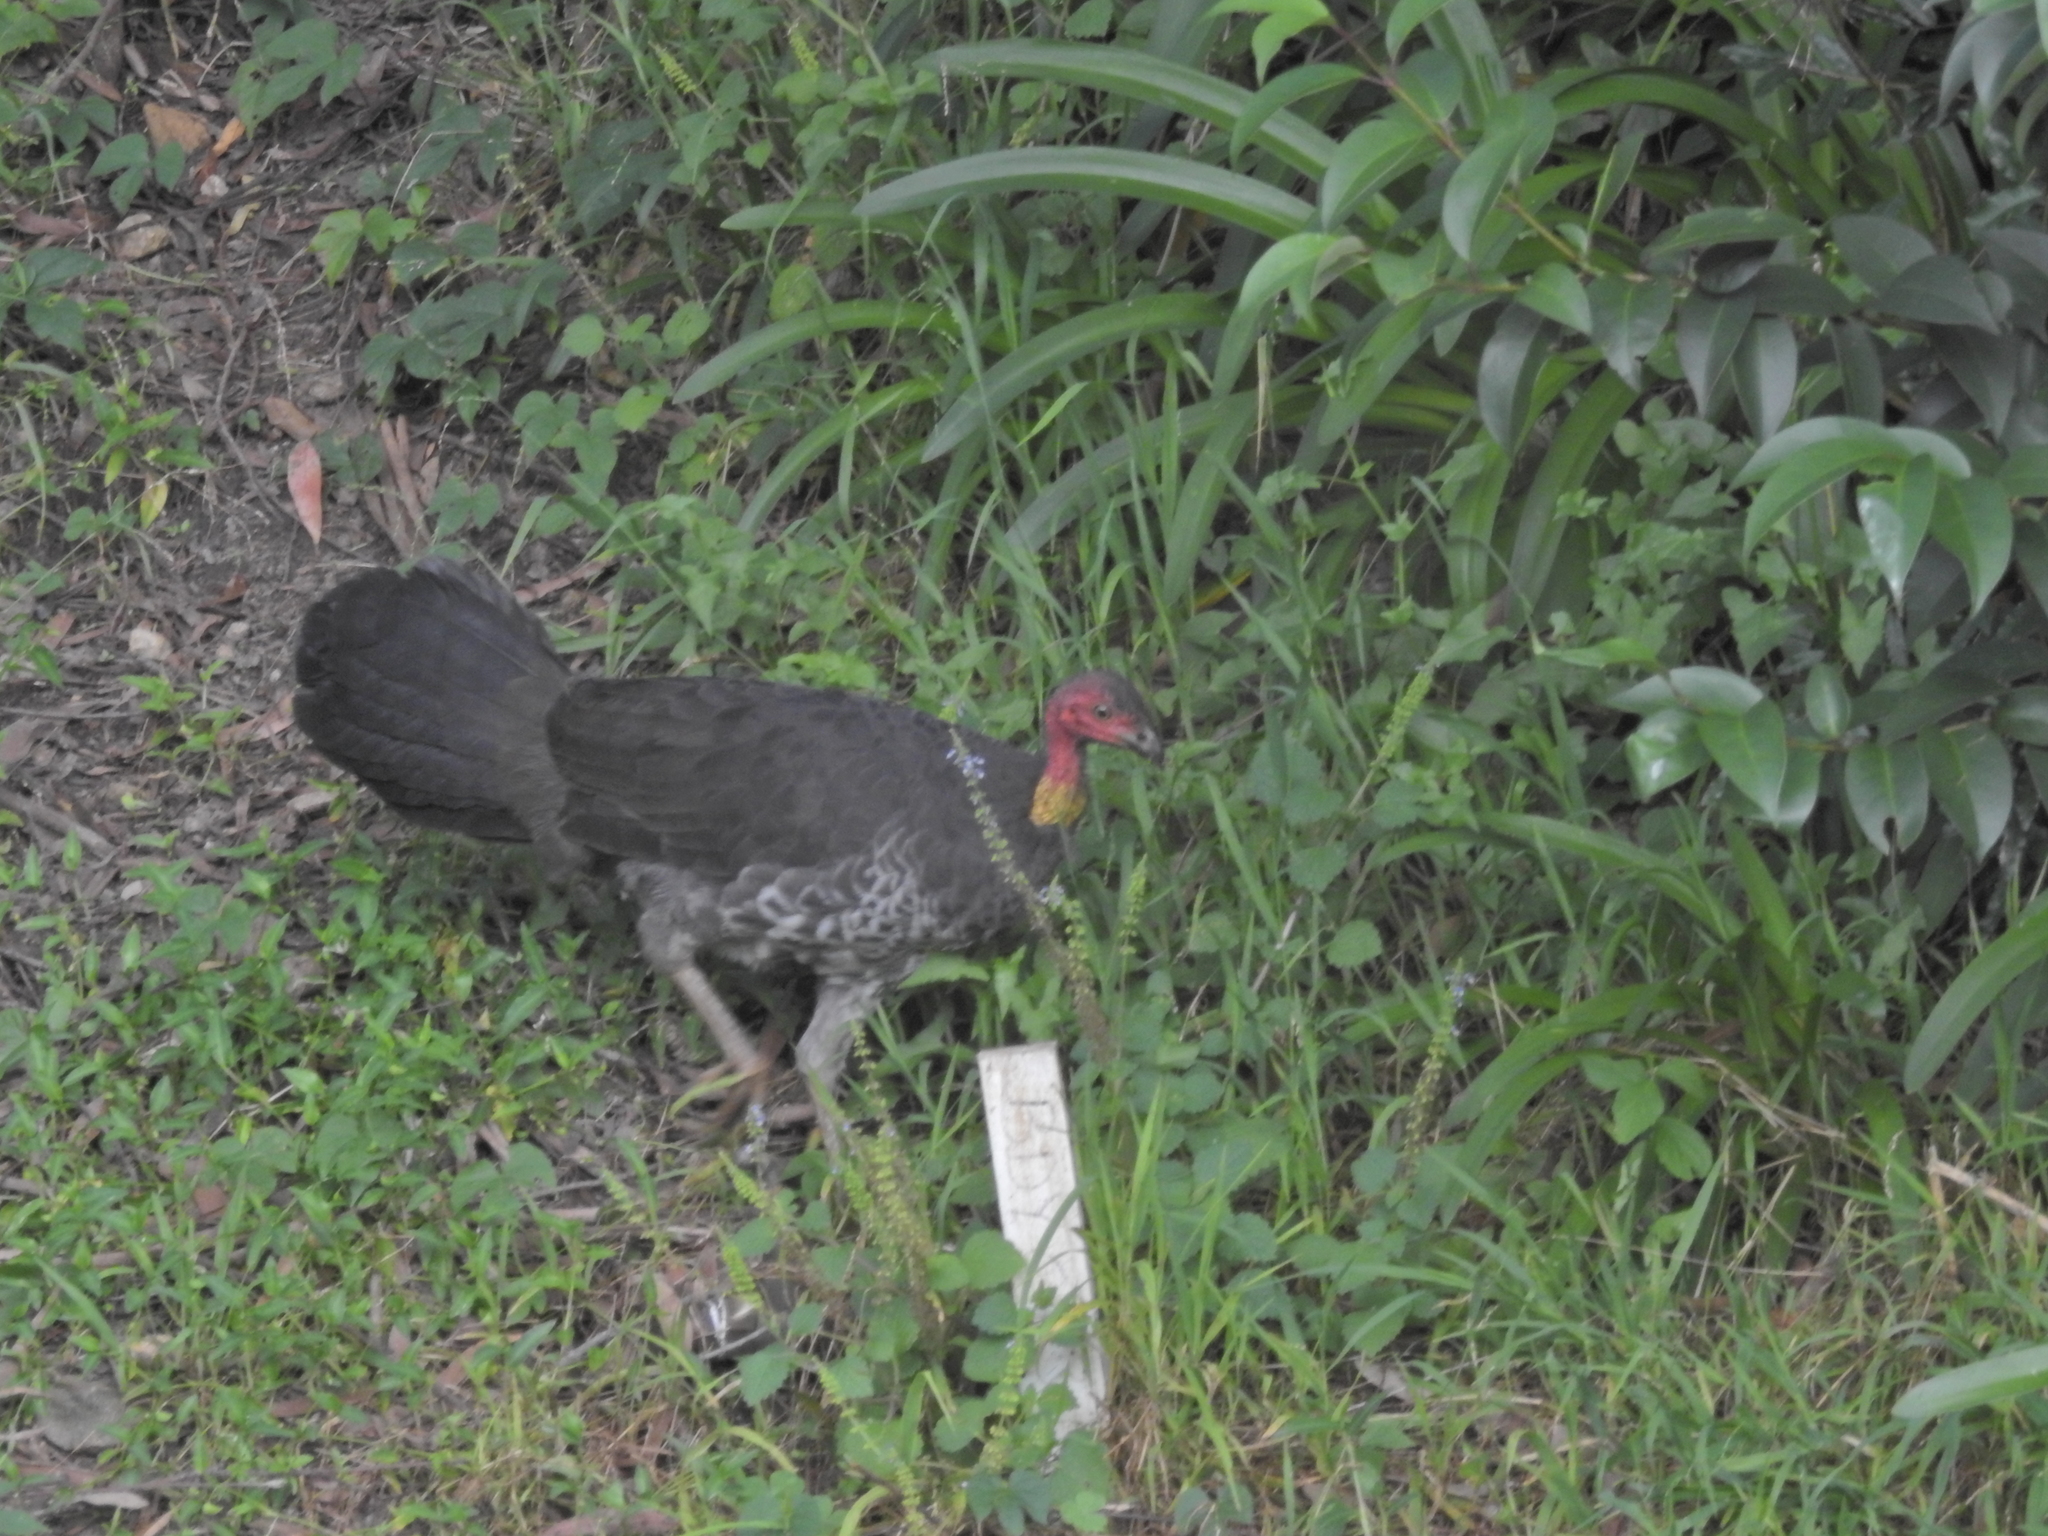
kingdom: Animalia
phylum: Chordata
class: Aves
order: Galliformes
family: Megapodiidae
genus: Alectura
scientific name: Alectura lathami
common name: Australian brushturkey
